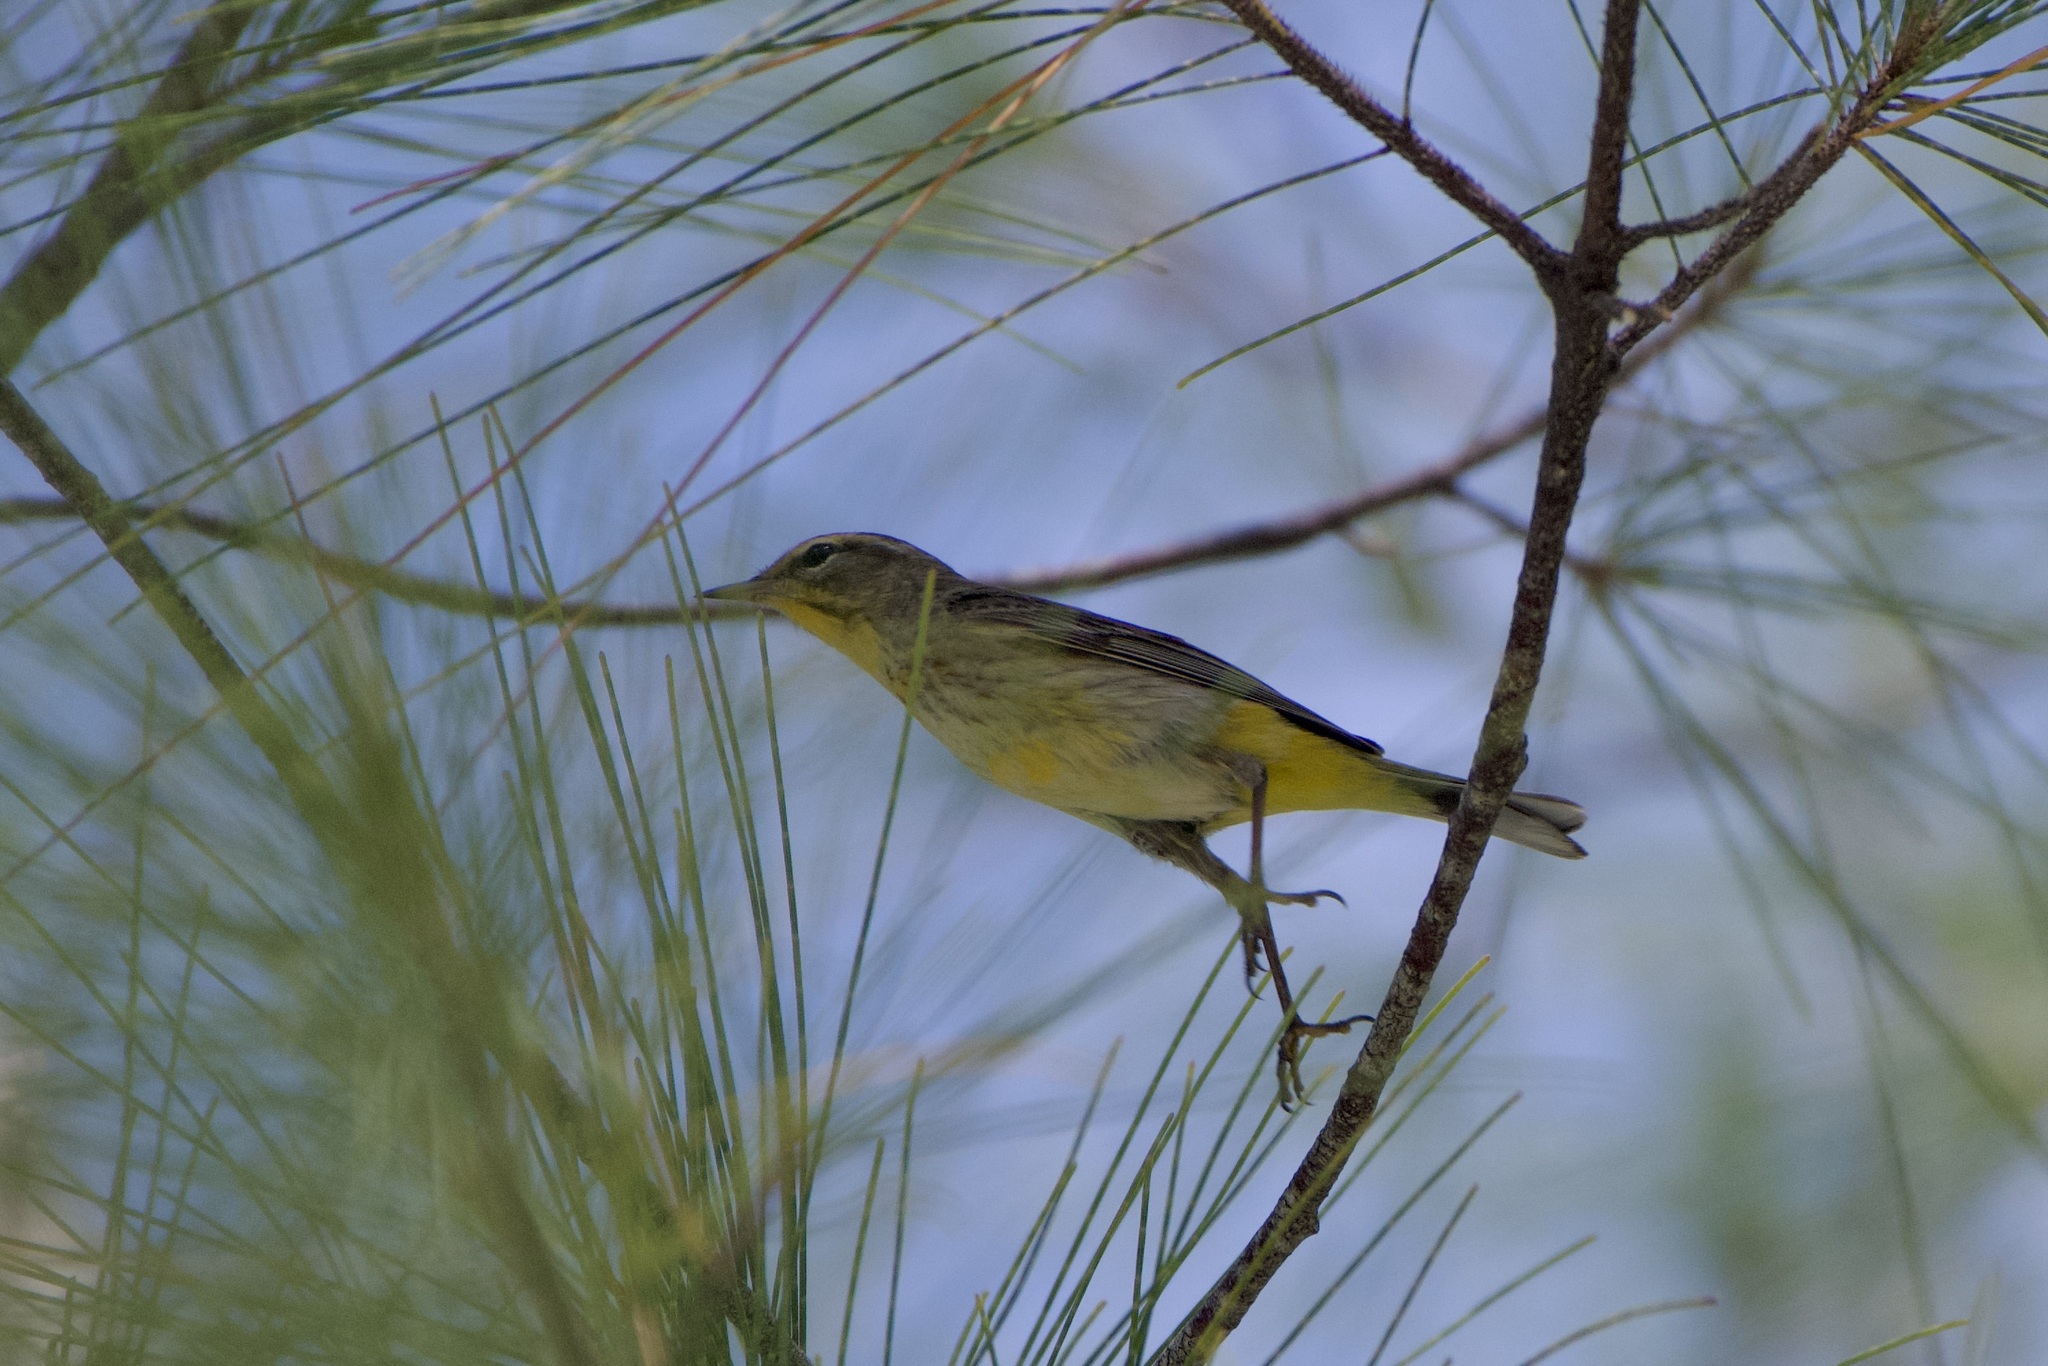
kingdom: Animalia
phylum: Chordata
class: Aves
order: Passeriformes
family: Parulidae
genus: Setophaga
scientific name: Setophaga palmarum
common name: Palm warbler
